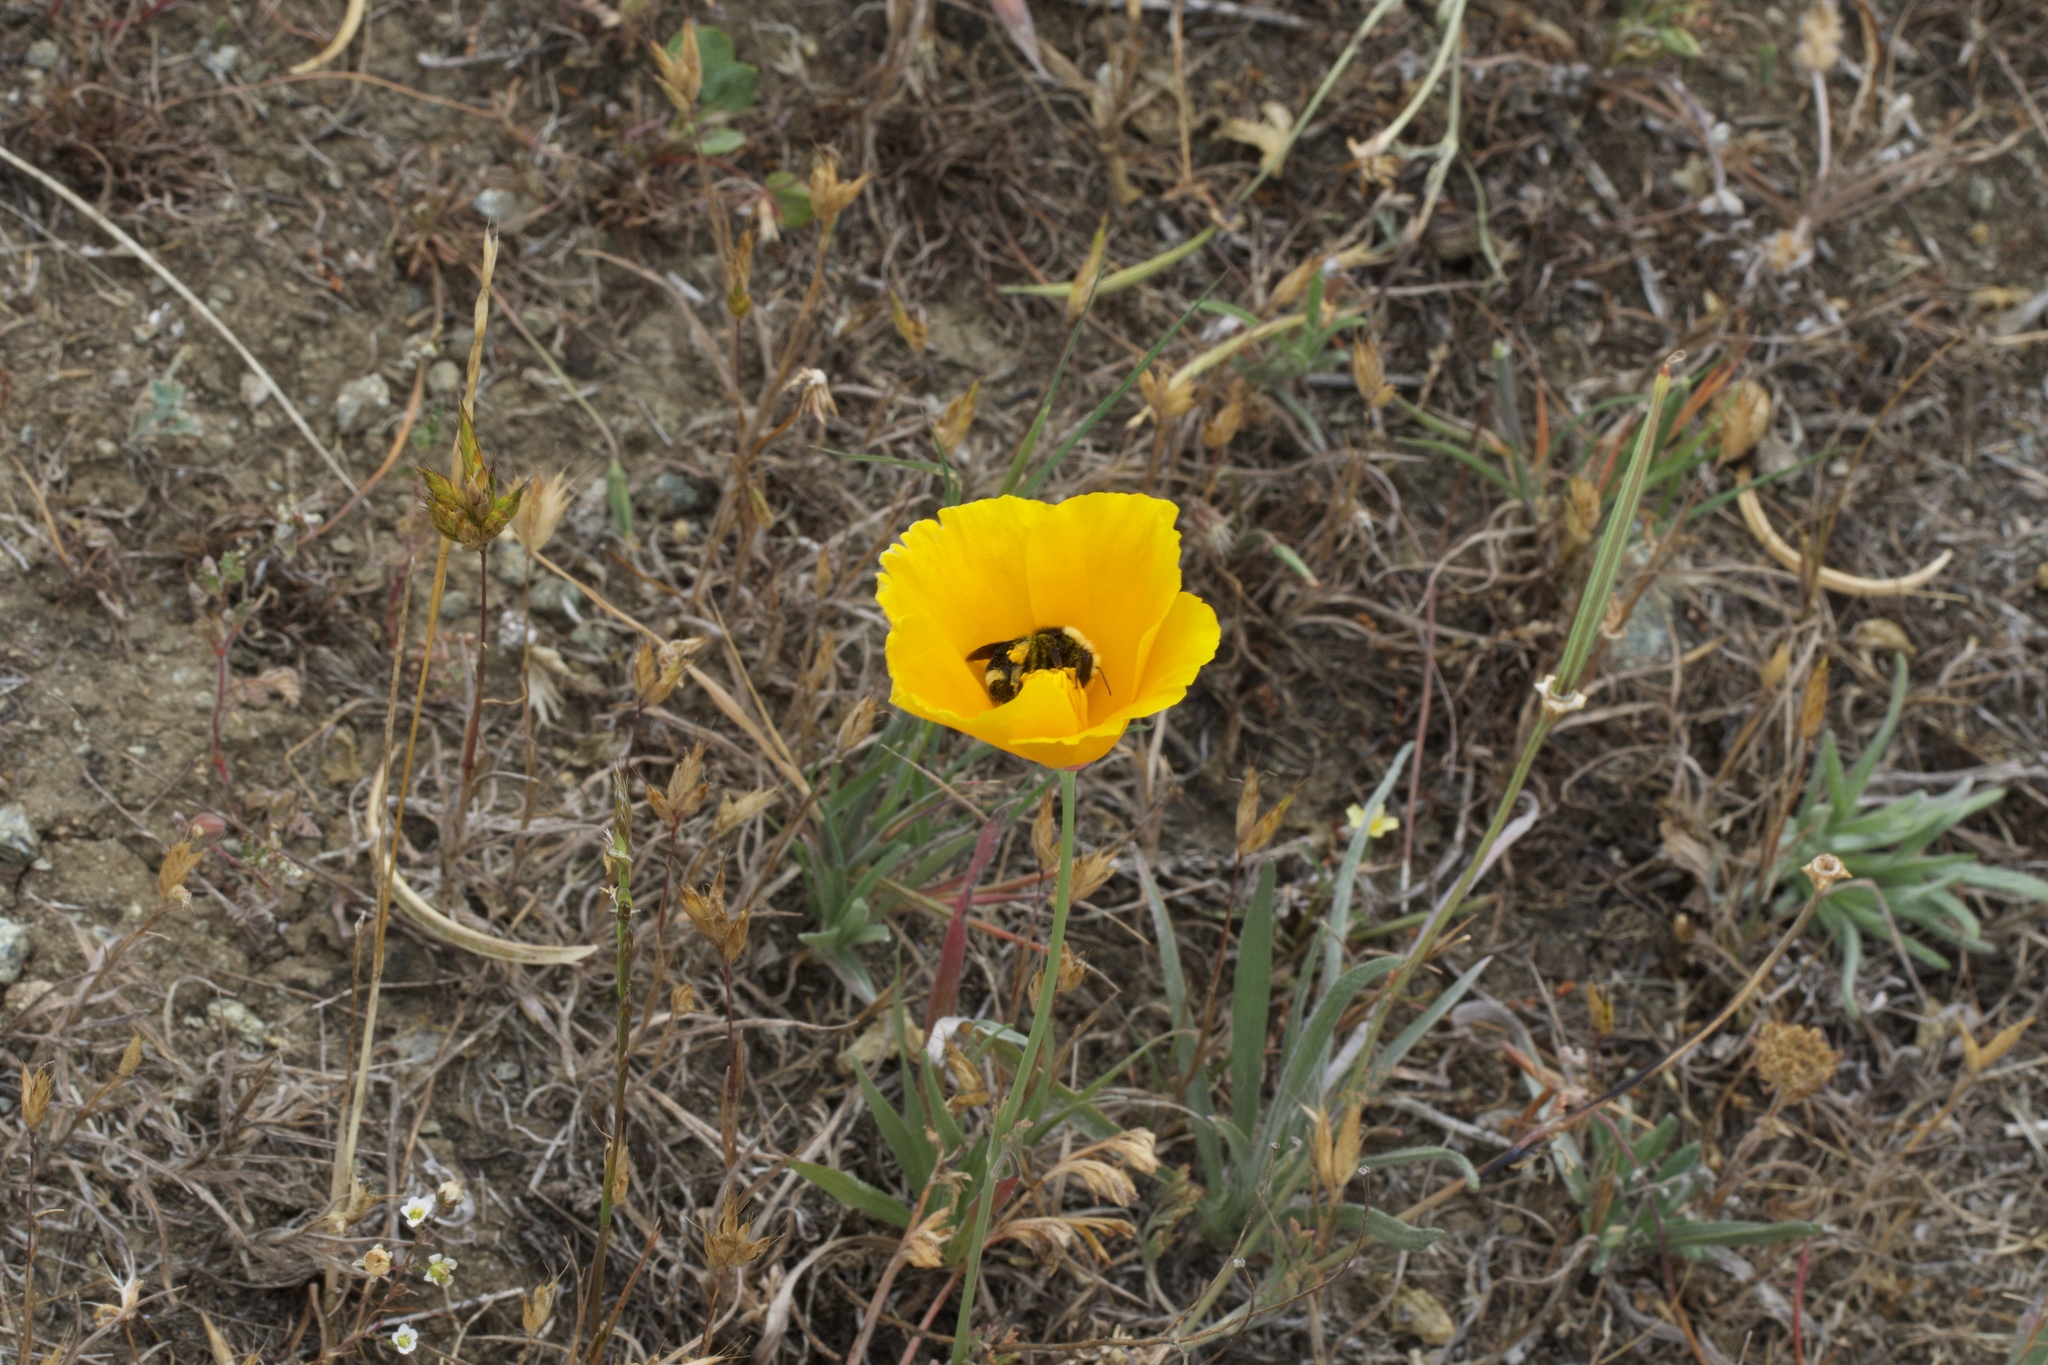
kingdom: Plantae
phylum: Tracheophyta
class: Magnoliopsida
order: Ranunculales
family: Papaveraceae
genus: Eschscholzia
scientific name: Eschscholzia californica
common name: California poppy
